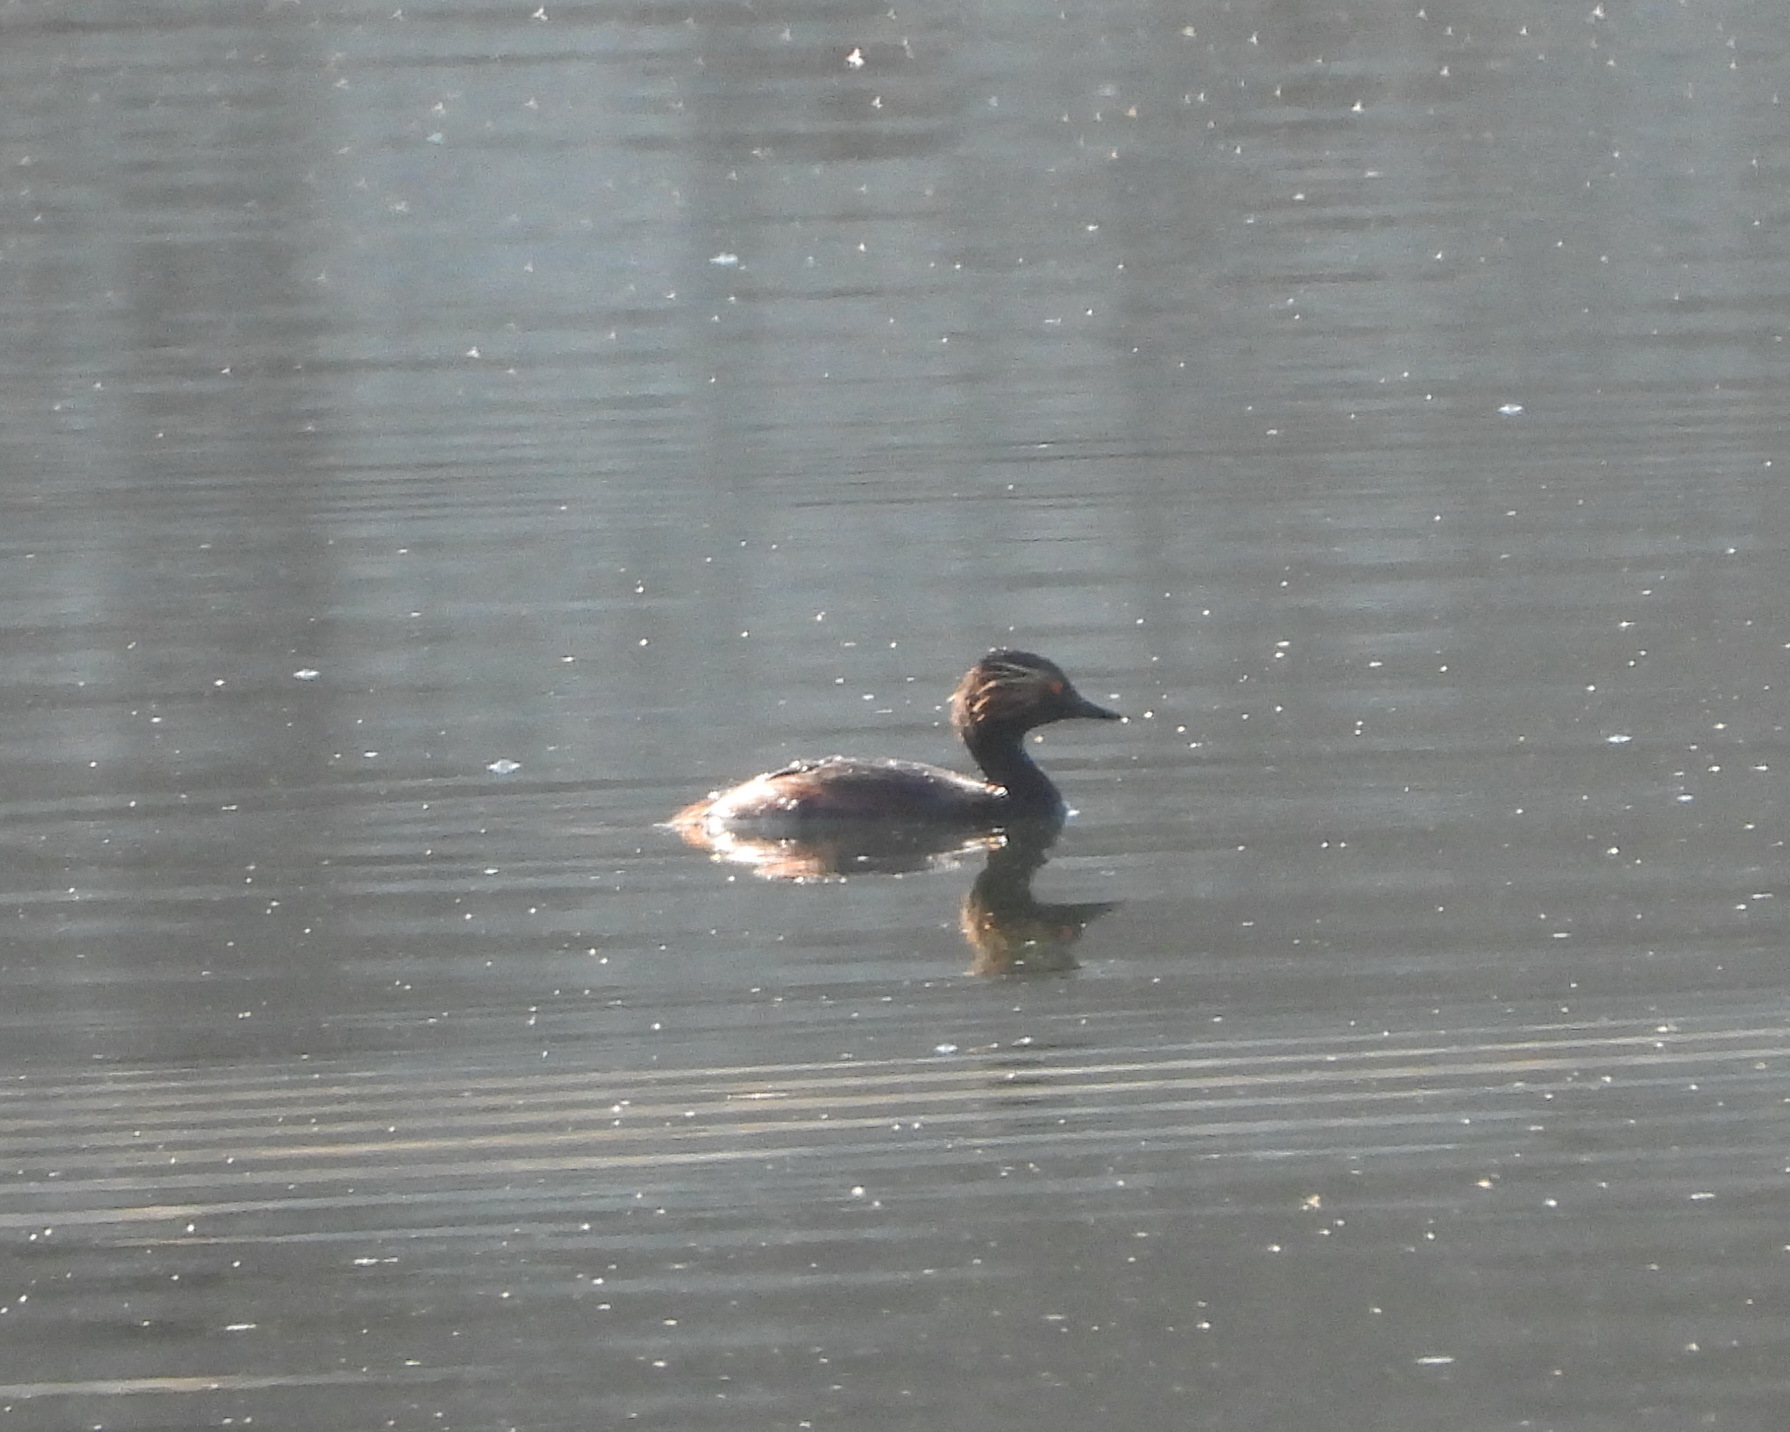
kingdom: Animalia
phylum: Chordata
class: Aves
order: Podicipediformes
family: Podicipedidae
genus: Podiceps
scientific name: Podiceps nigricollis
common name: Black-necked grebe
